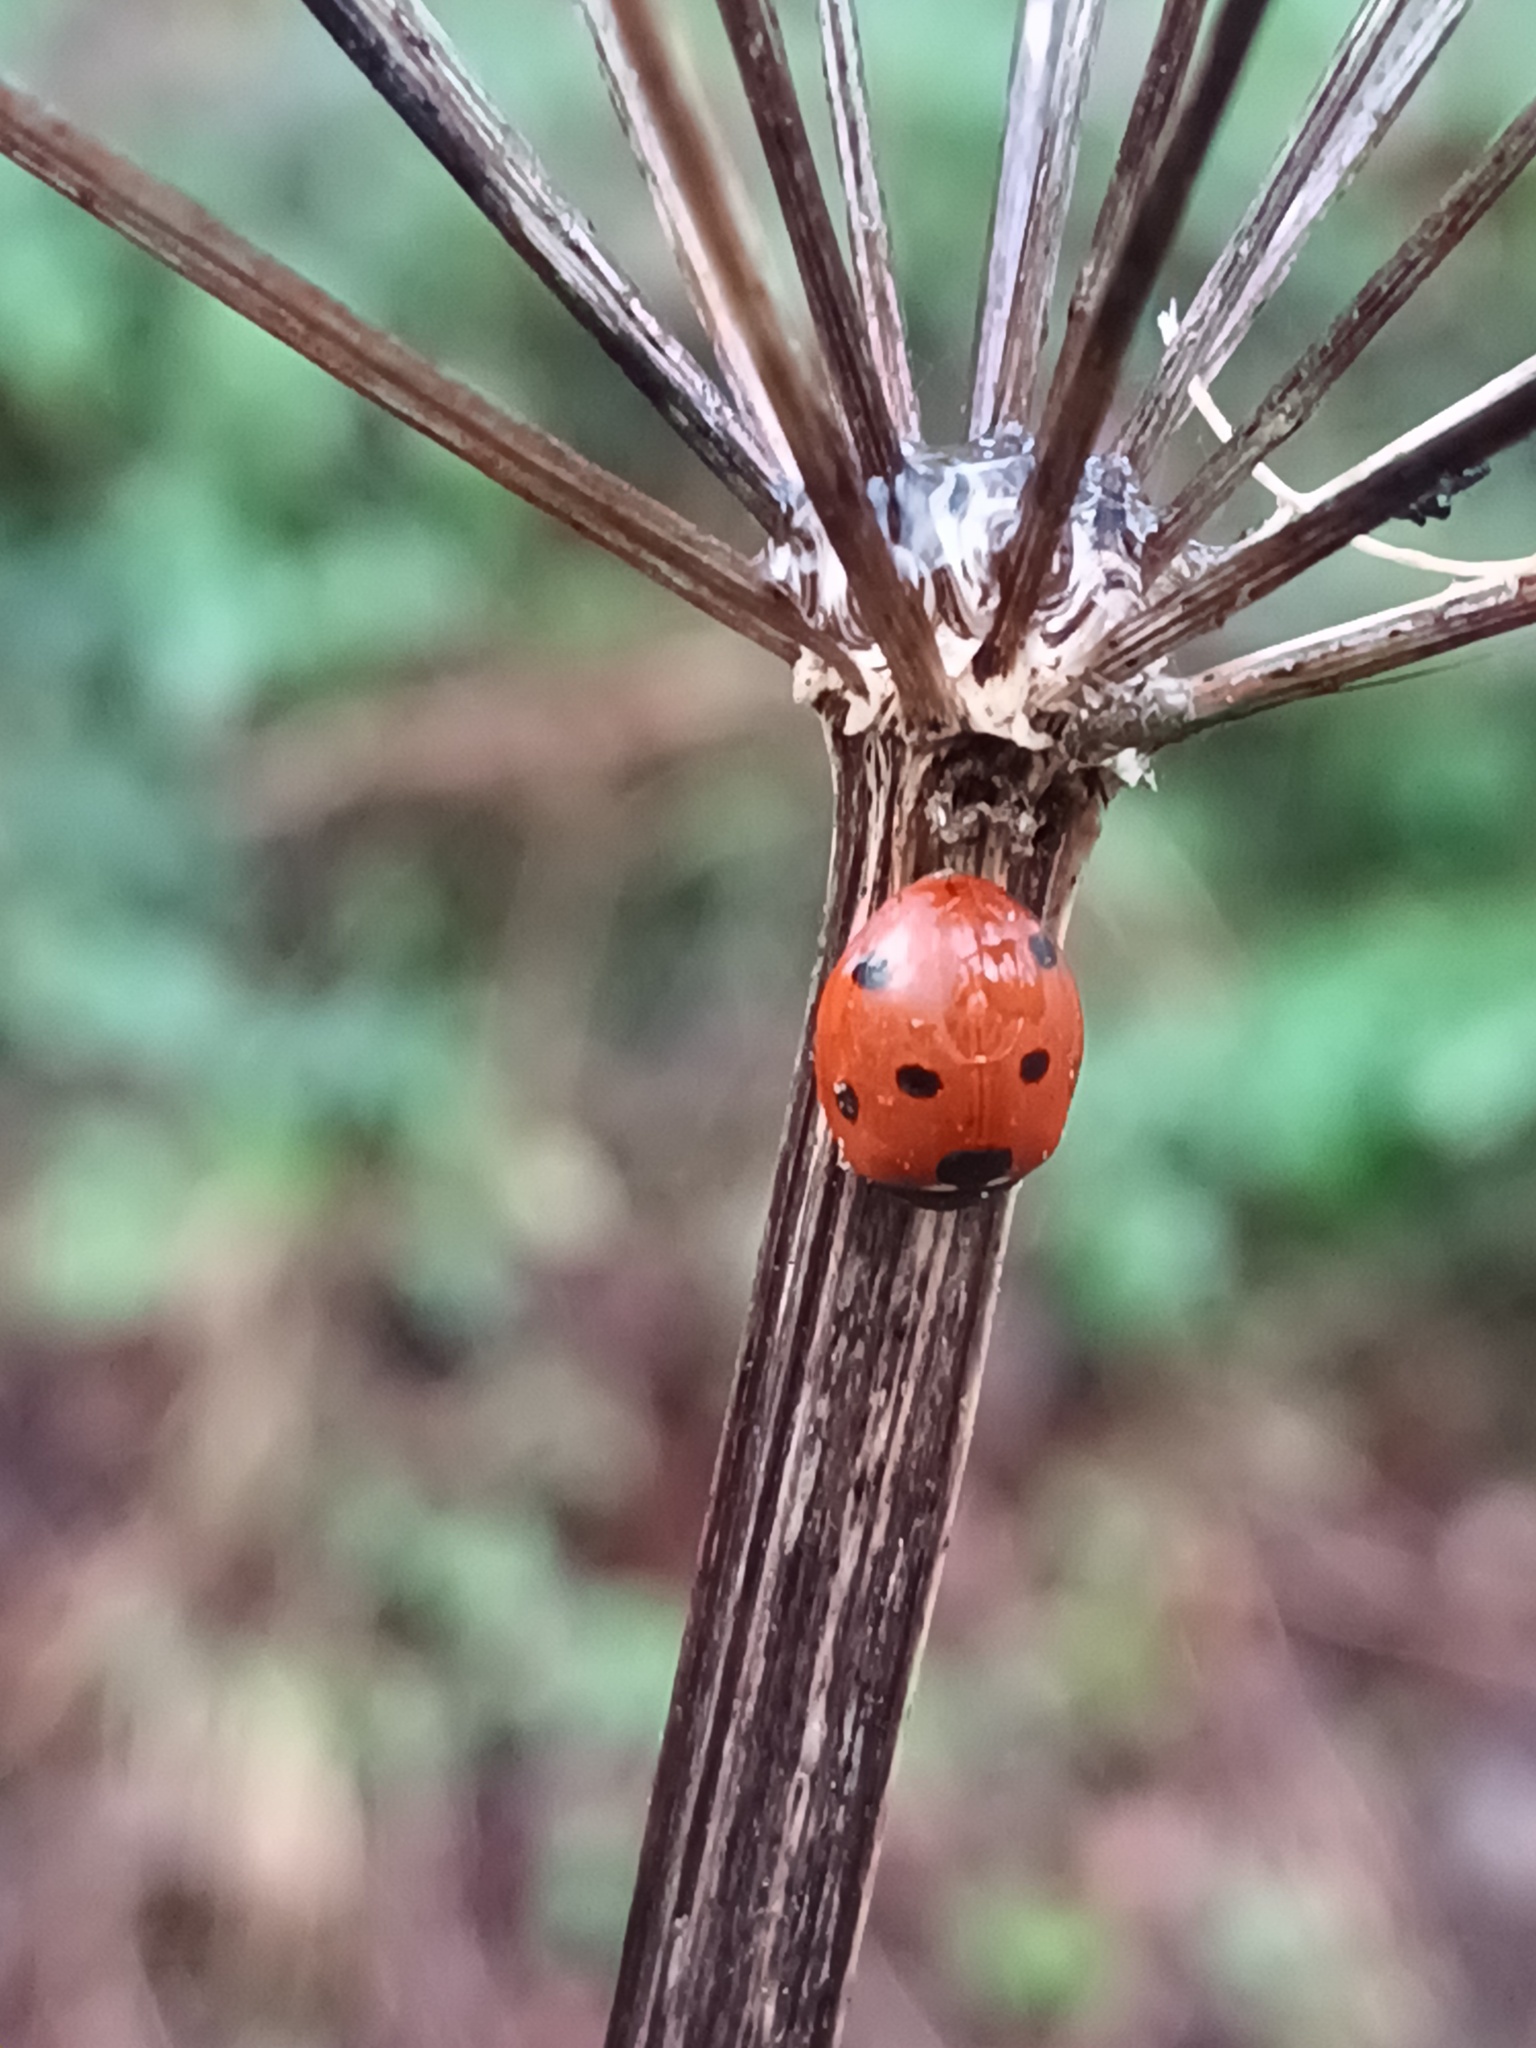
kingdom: Animalia
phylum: Arthropoda
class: Insecta
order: Coleoptera
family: Coccinellidae
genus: Coccinella
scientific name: Coccinella septempunctata
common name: Sevenspotted lady beetle
